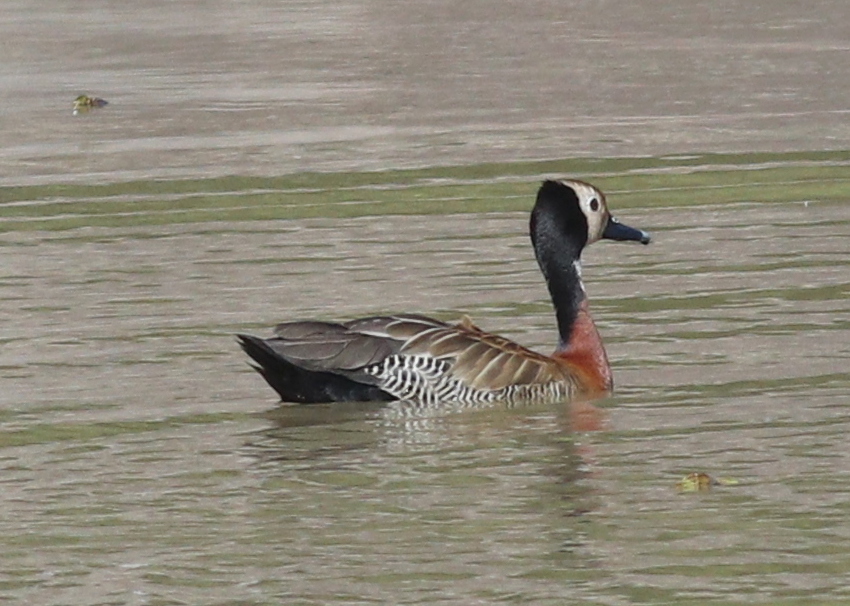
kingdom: Animalia
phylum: Chordata
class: Aves
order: Anseriformes
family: Anatidae
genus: Dendrocygna
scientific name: Dendrocygna viduata
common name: White-faced whistling duck
